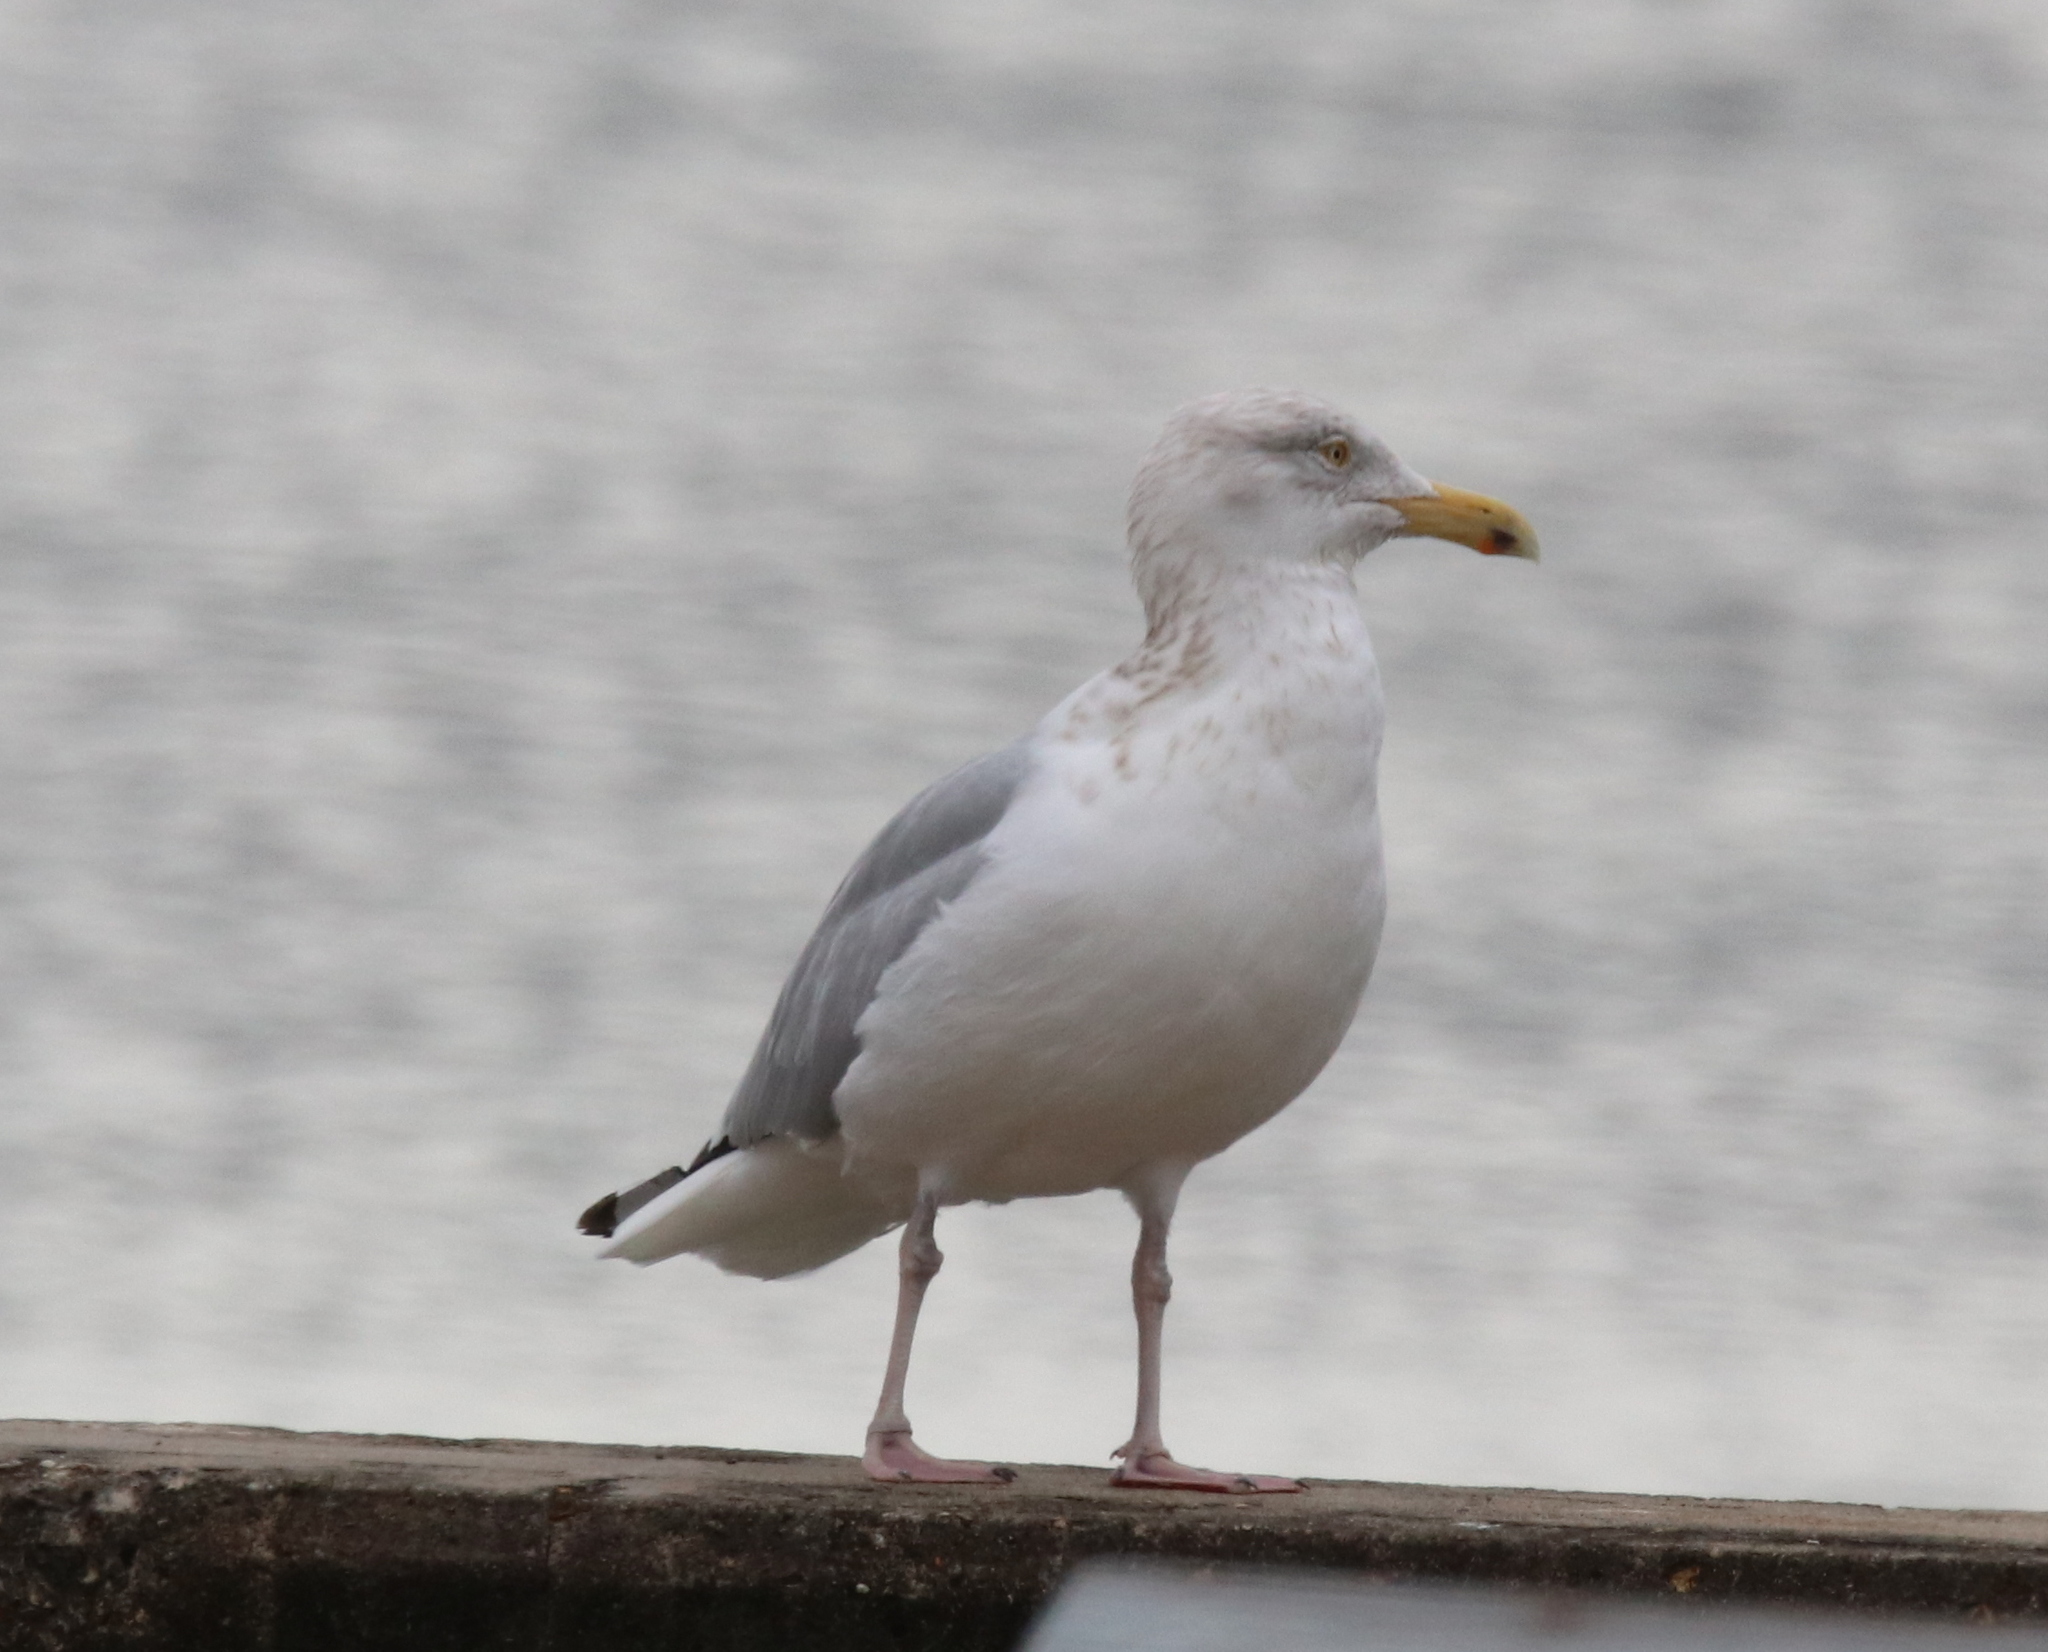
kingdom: Animalia
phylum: Chordata
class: Aves
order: Charadriiformes
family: Laridae
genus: Larus
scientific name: Larus argentatus
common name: Herring gull
